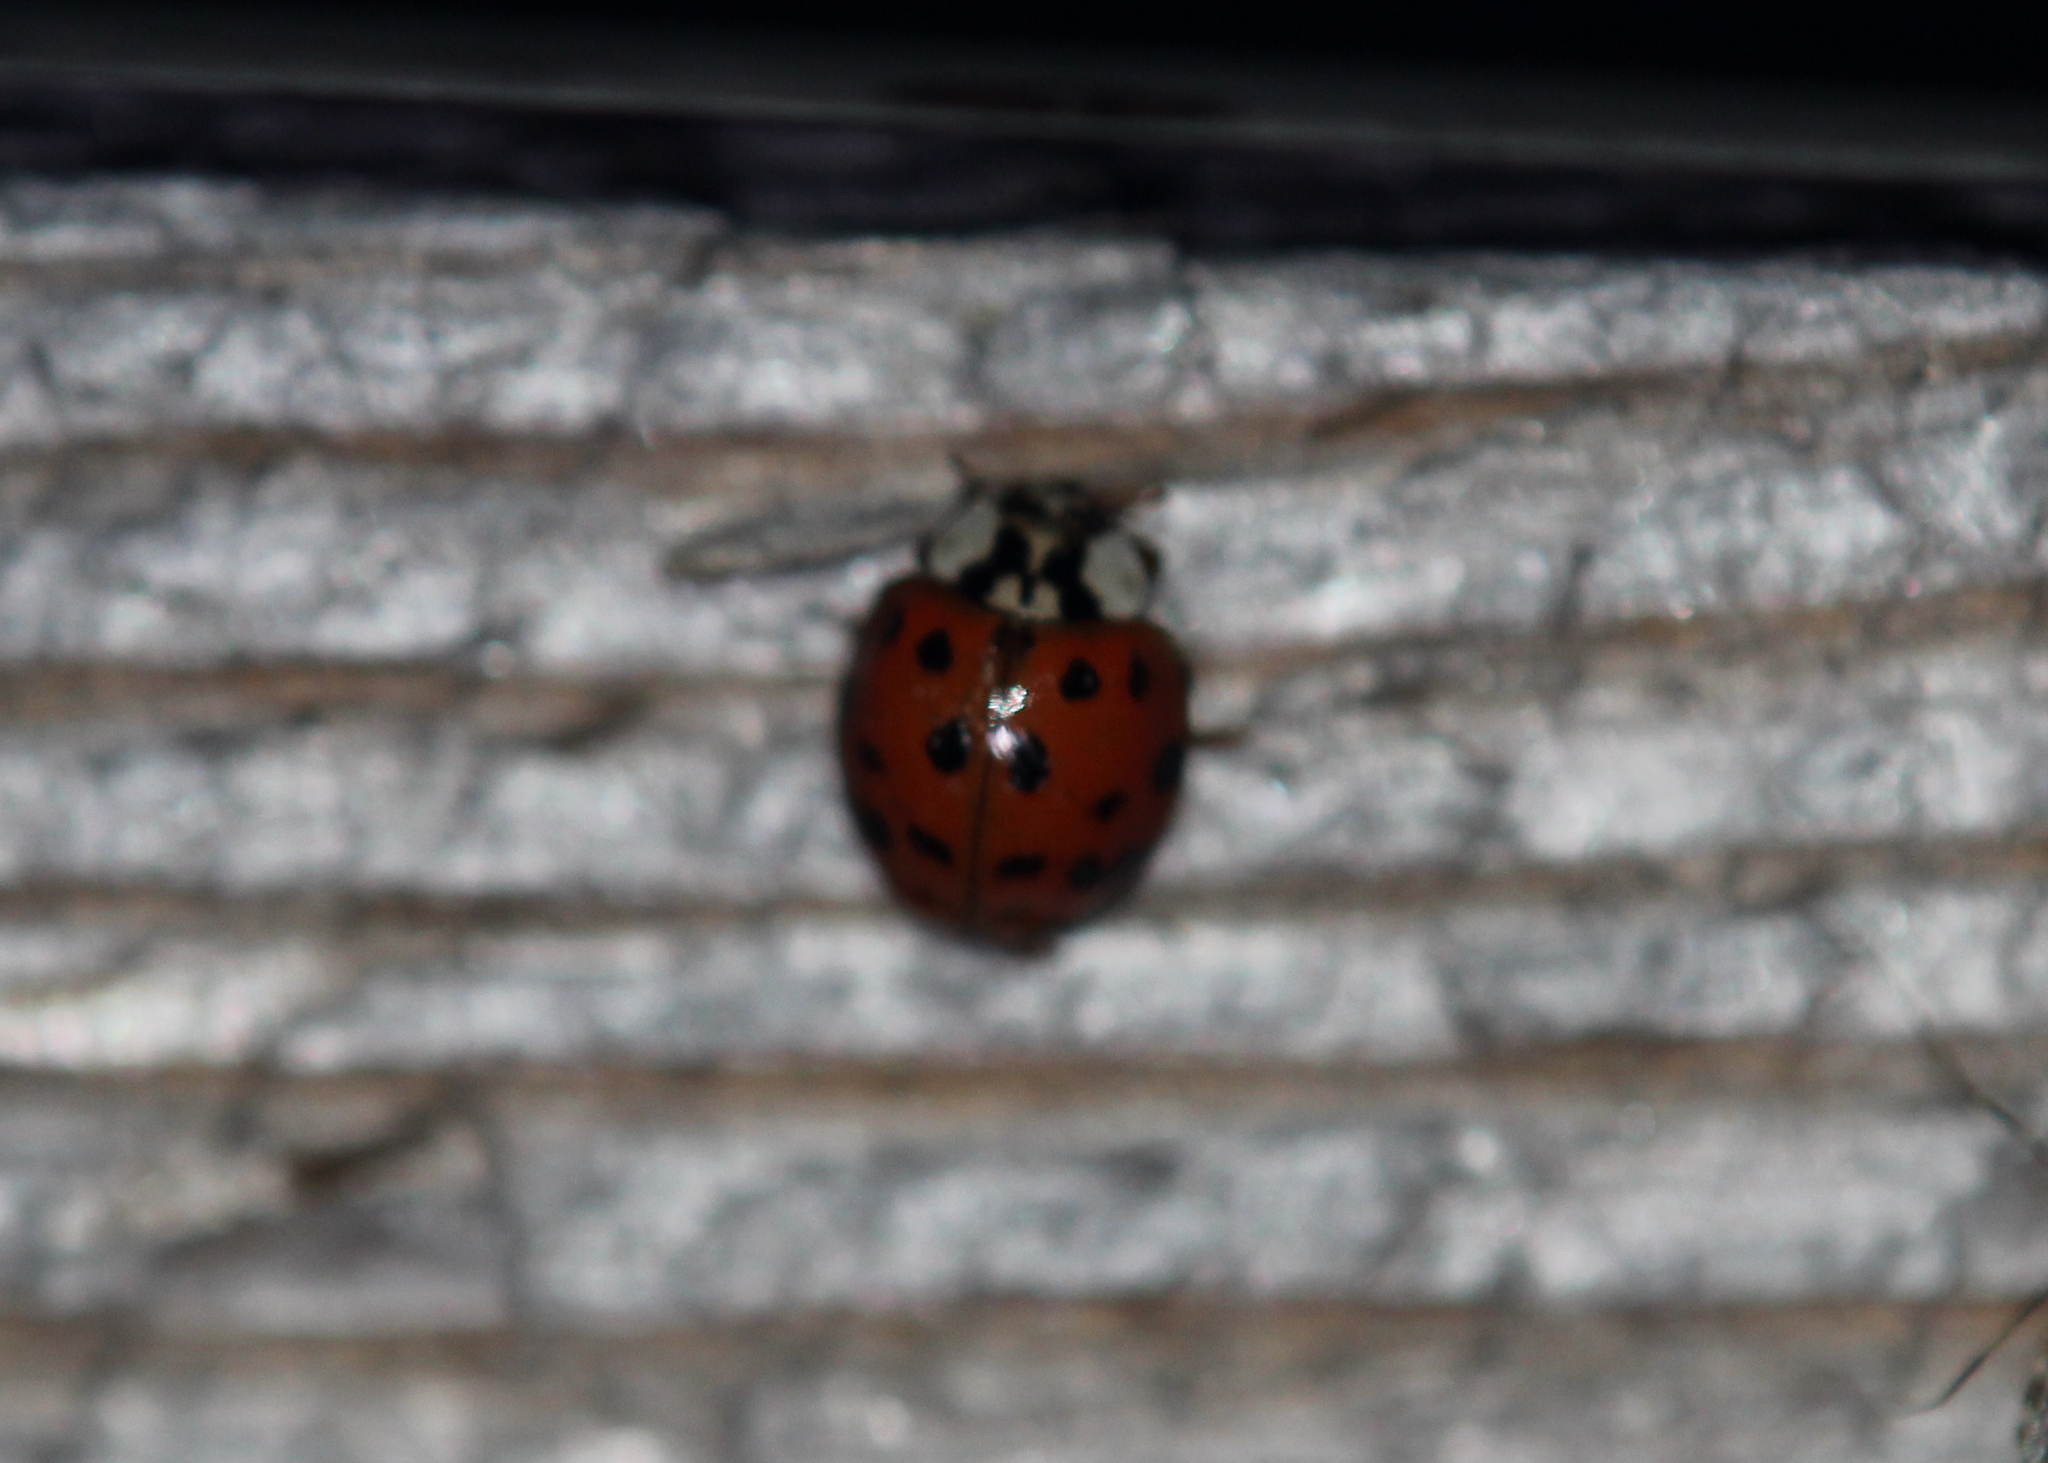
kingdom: Animalia
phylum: Arthropoda
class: Insecta
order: Coleoptera
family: Coccinellidae
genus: Harmonia
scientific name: Harmonia axyridis
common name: Harlequin ladybird
